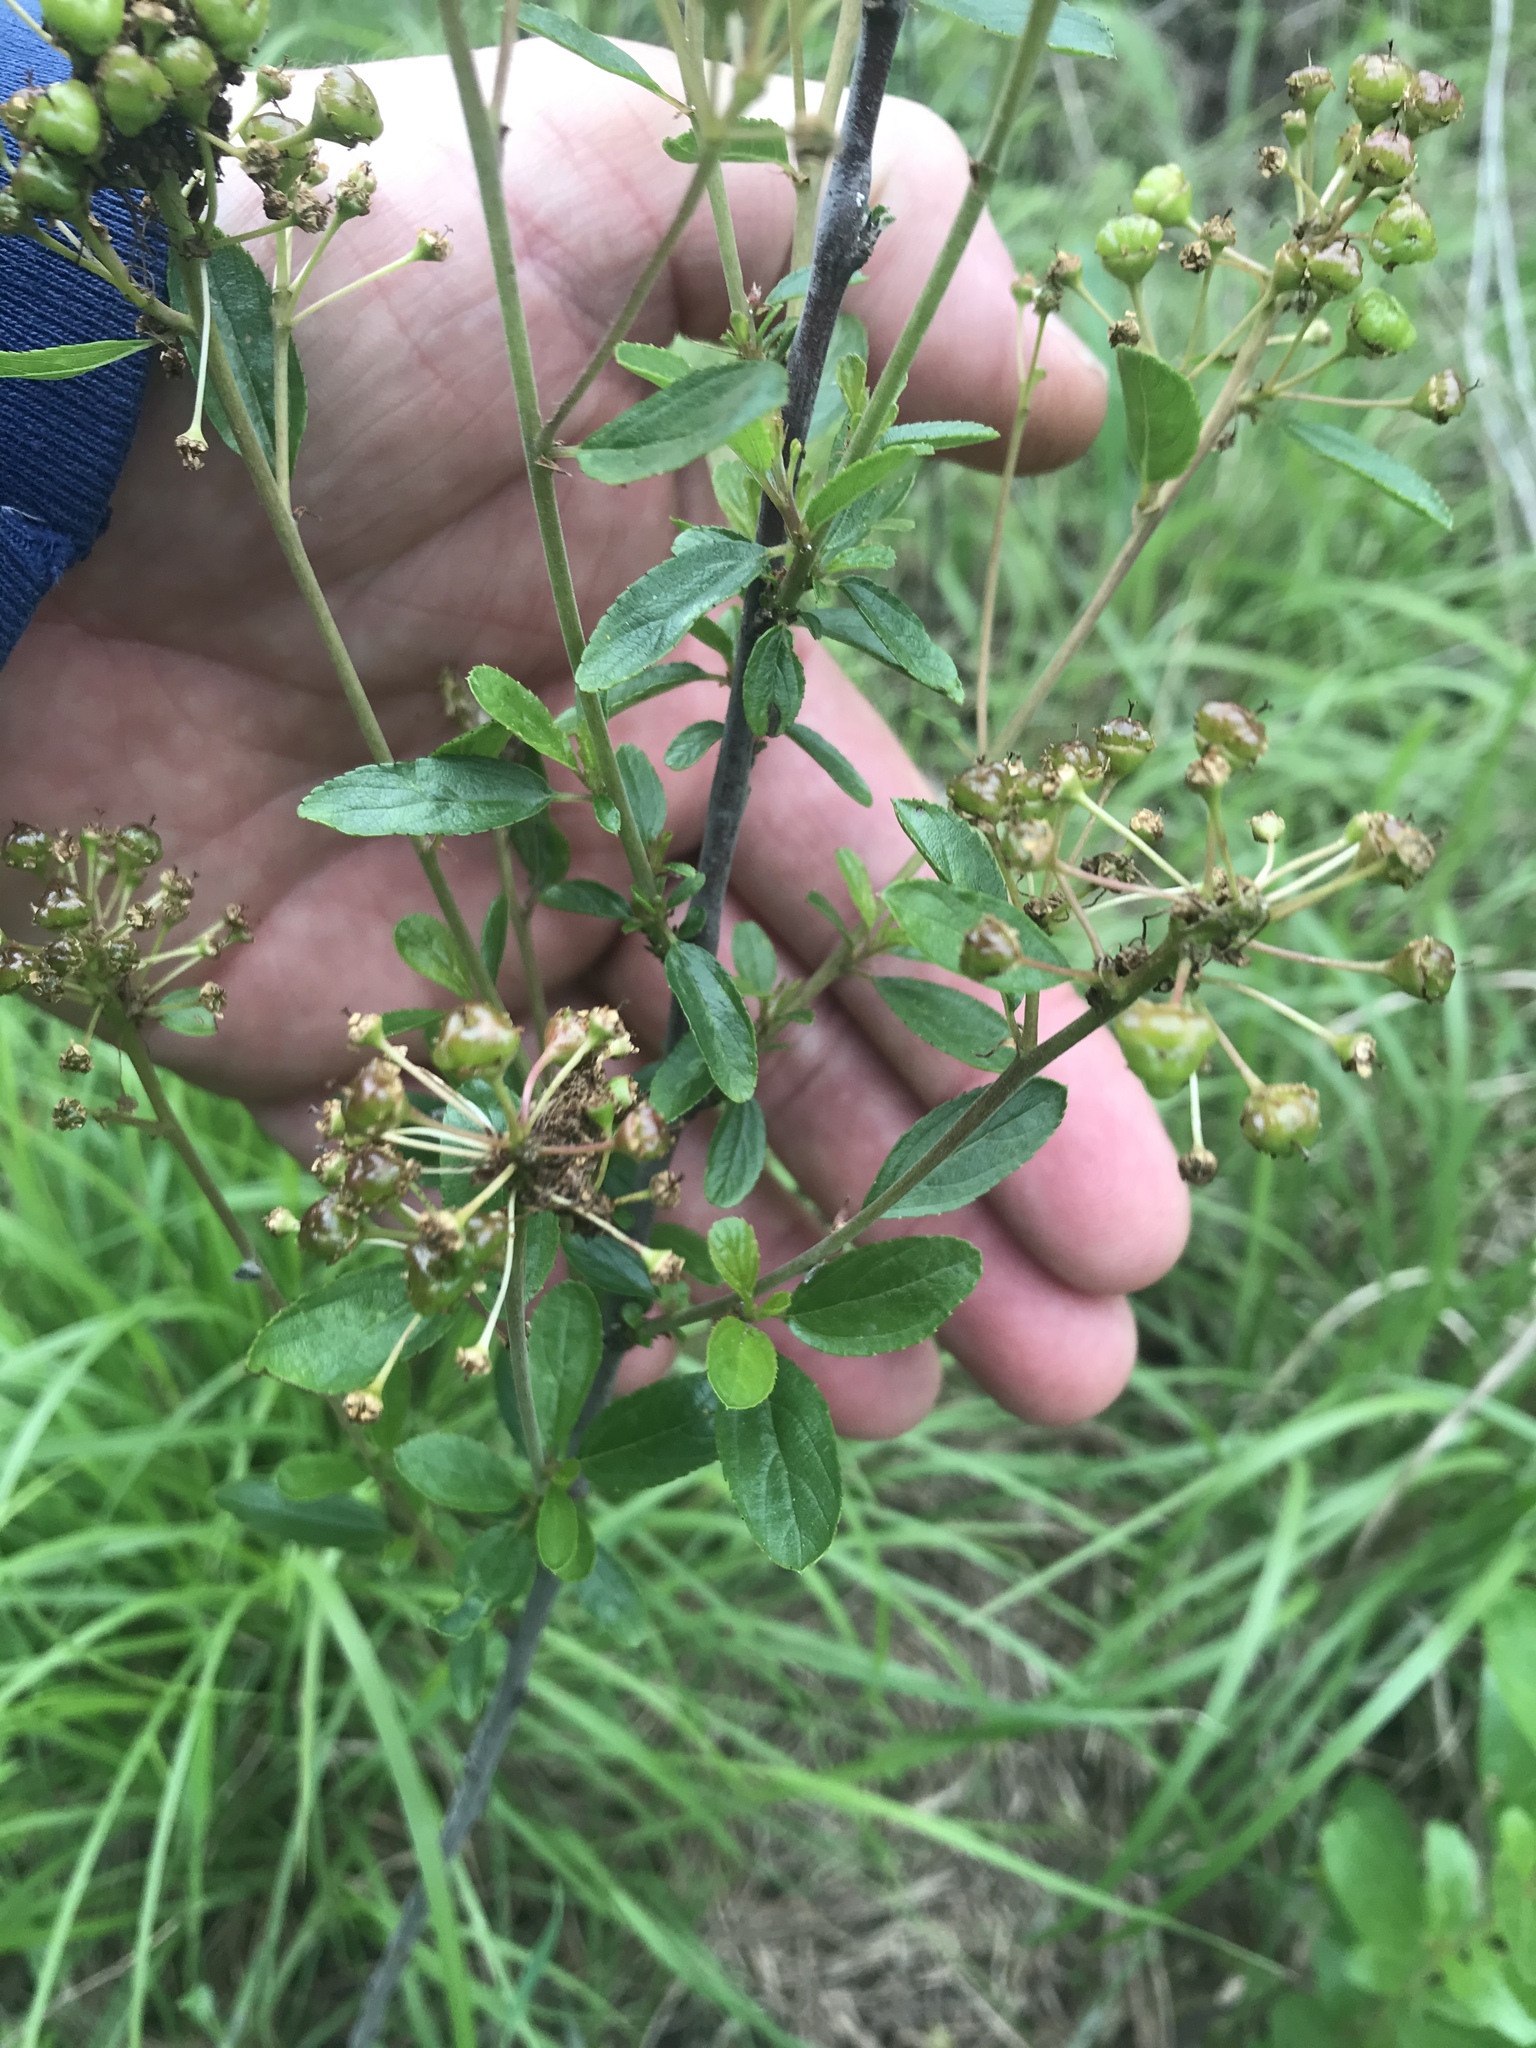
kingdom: Plantae
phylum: Tracheophyta
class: Magnoliopsida
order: Rosales
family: Rhamnaceae
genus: Ceanothus
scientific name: Ceanothus herbaceus
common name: Inland ceanothus
